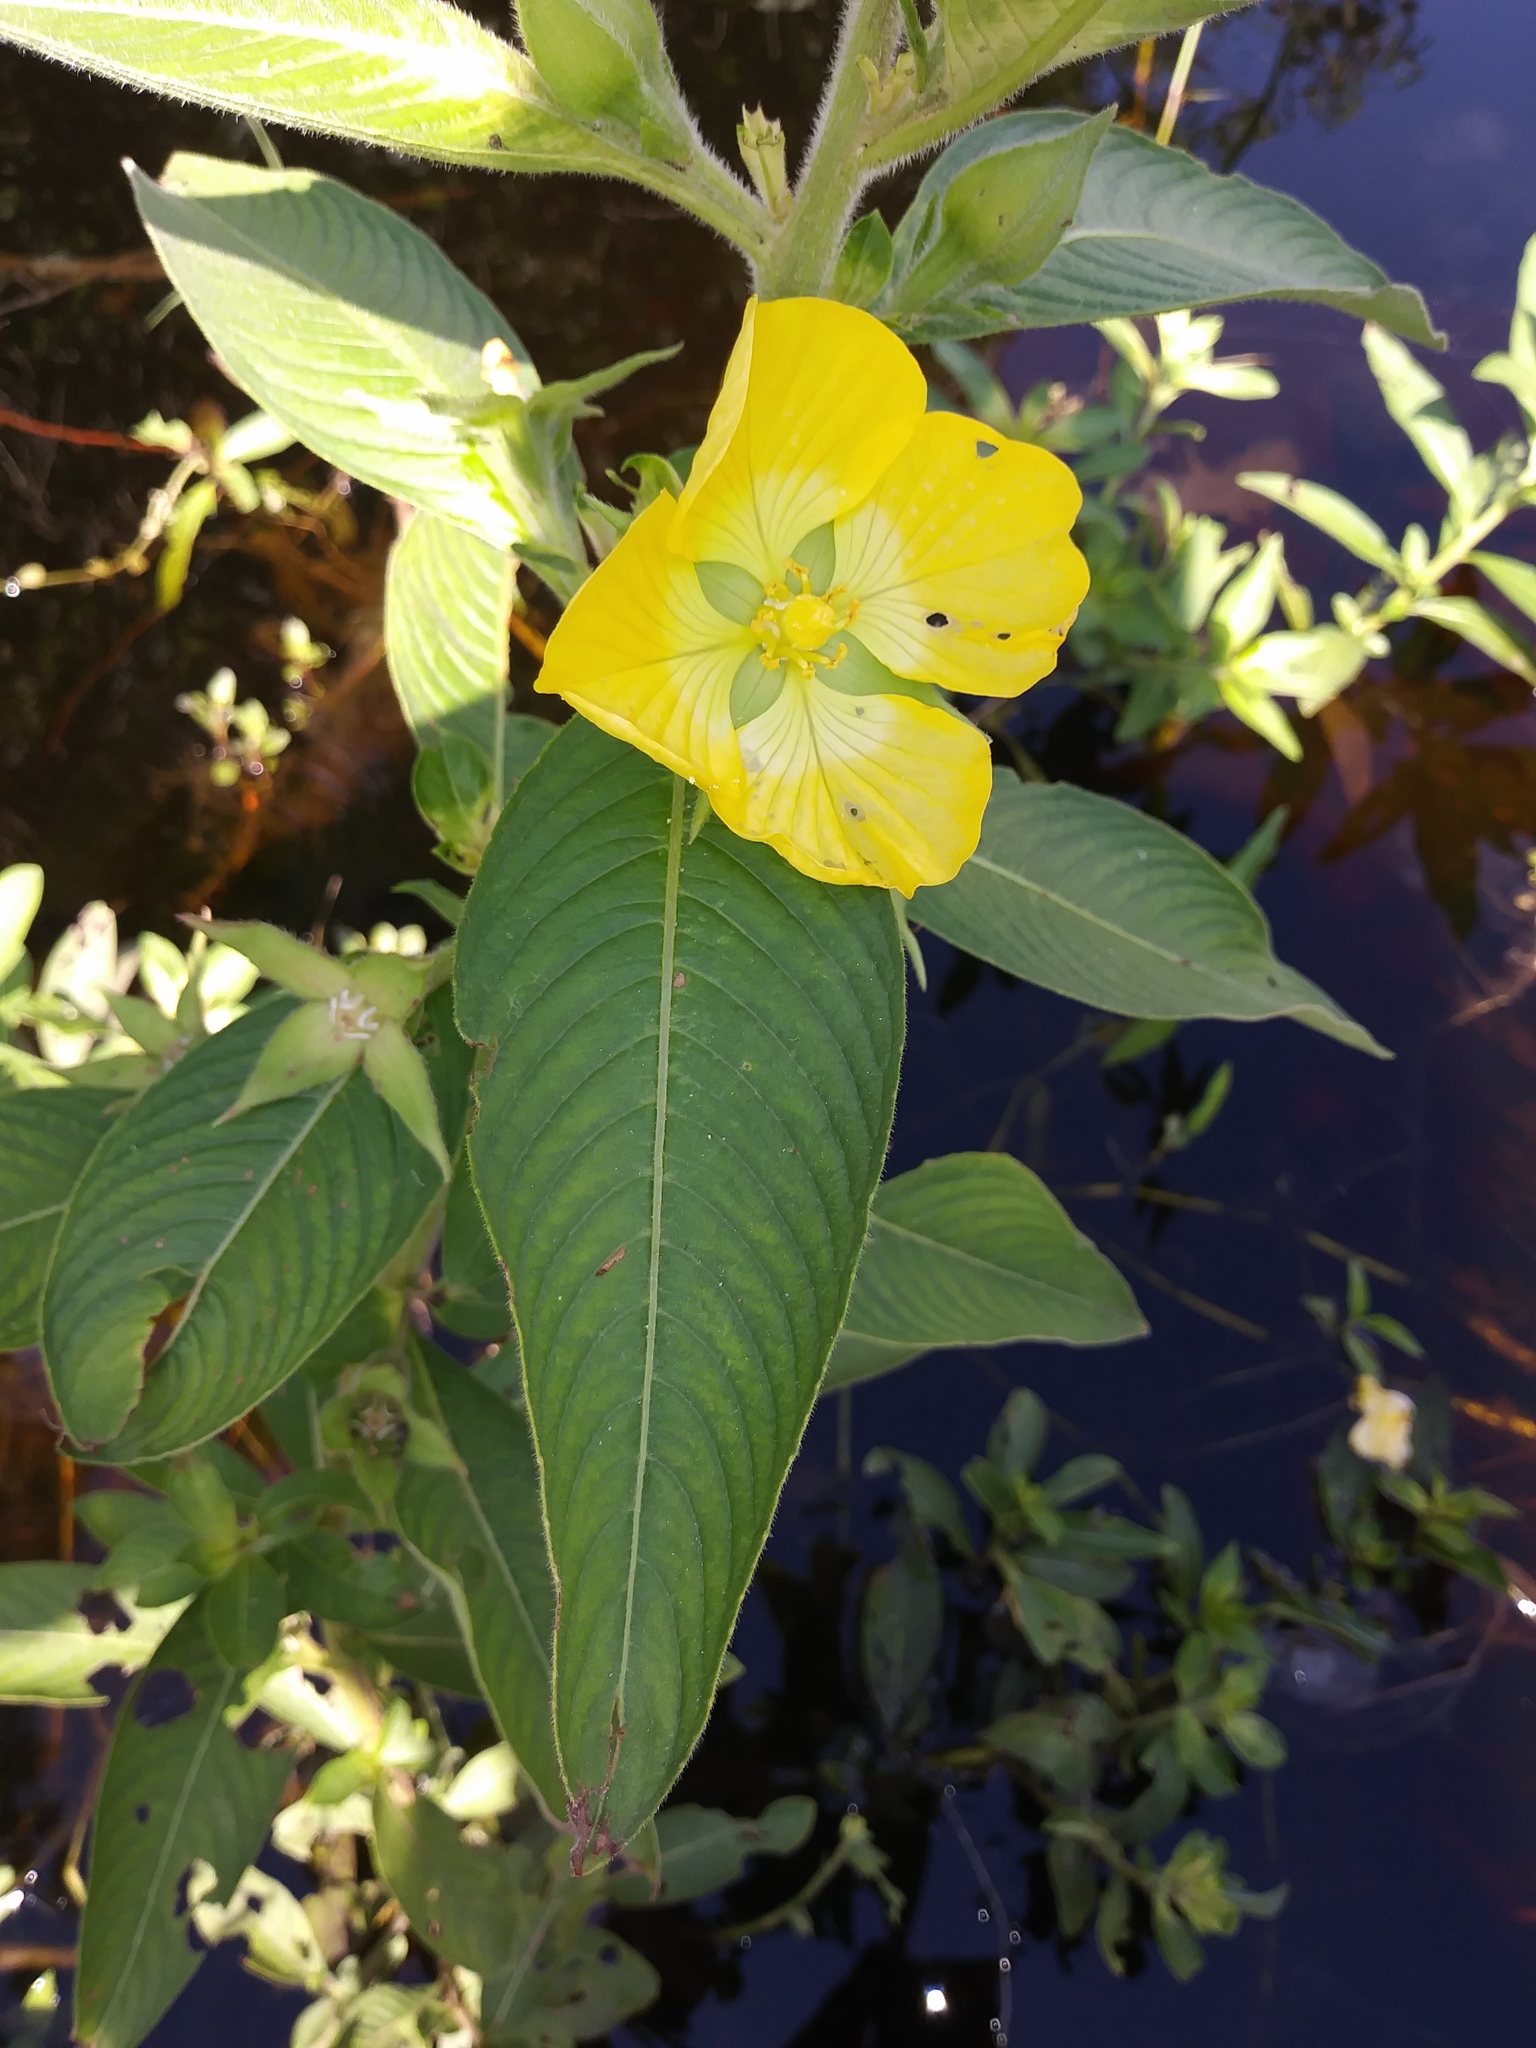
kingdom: Plantae
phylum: Tracheophyta
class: Magnoliopsida
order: Myrtales
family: Onagraceae
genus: Ludwigia
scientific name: Ludwigia peruviana
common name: Peruvian primrose-willow
